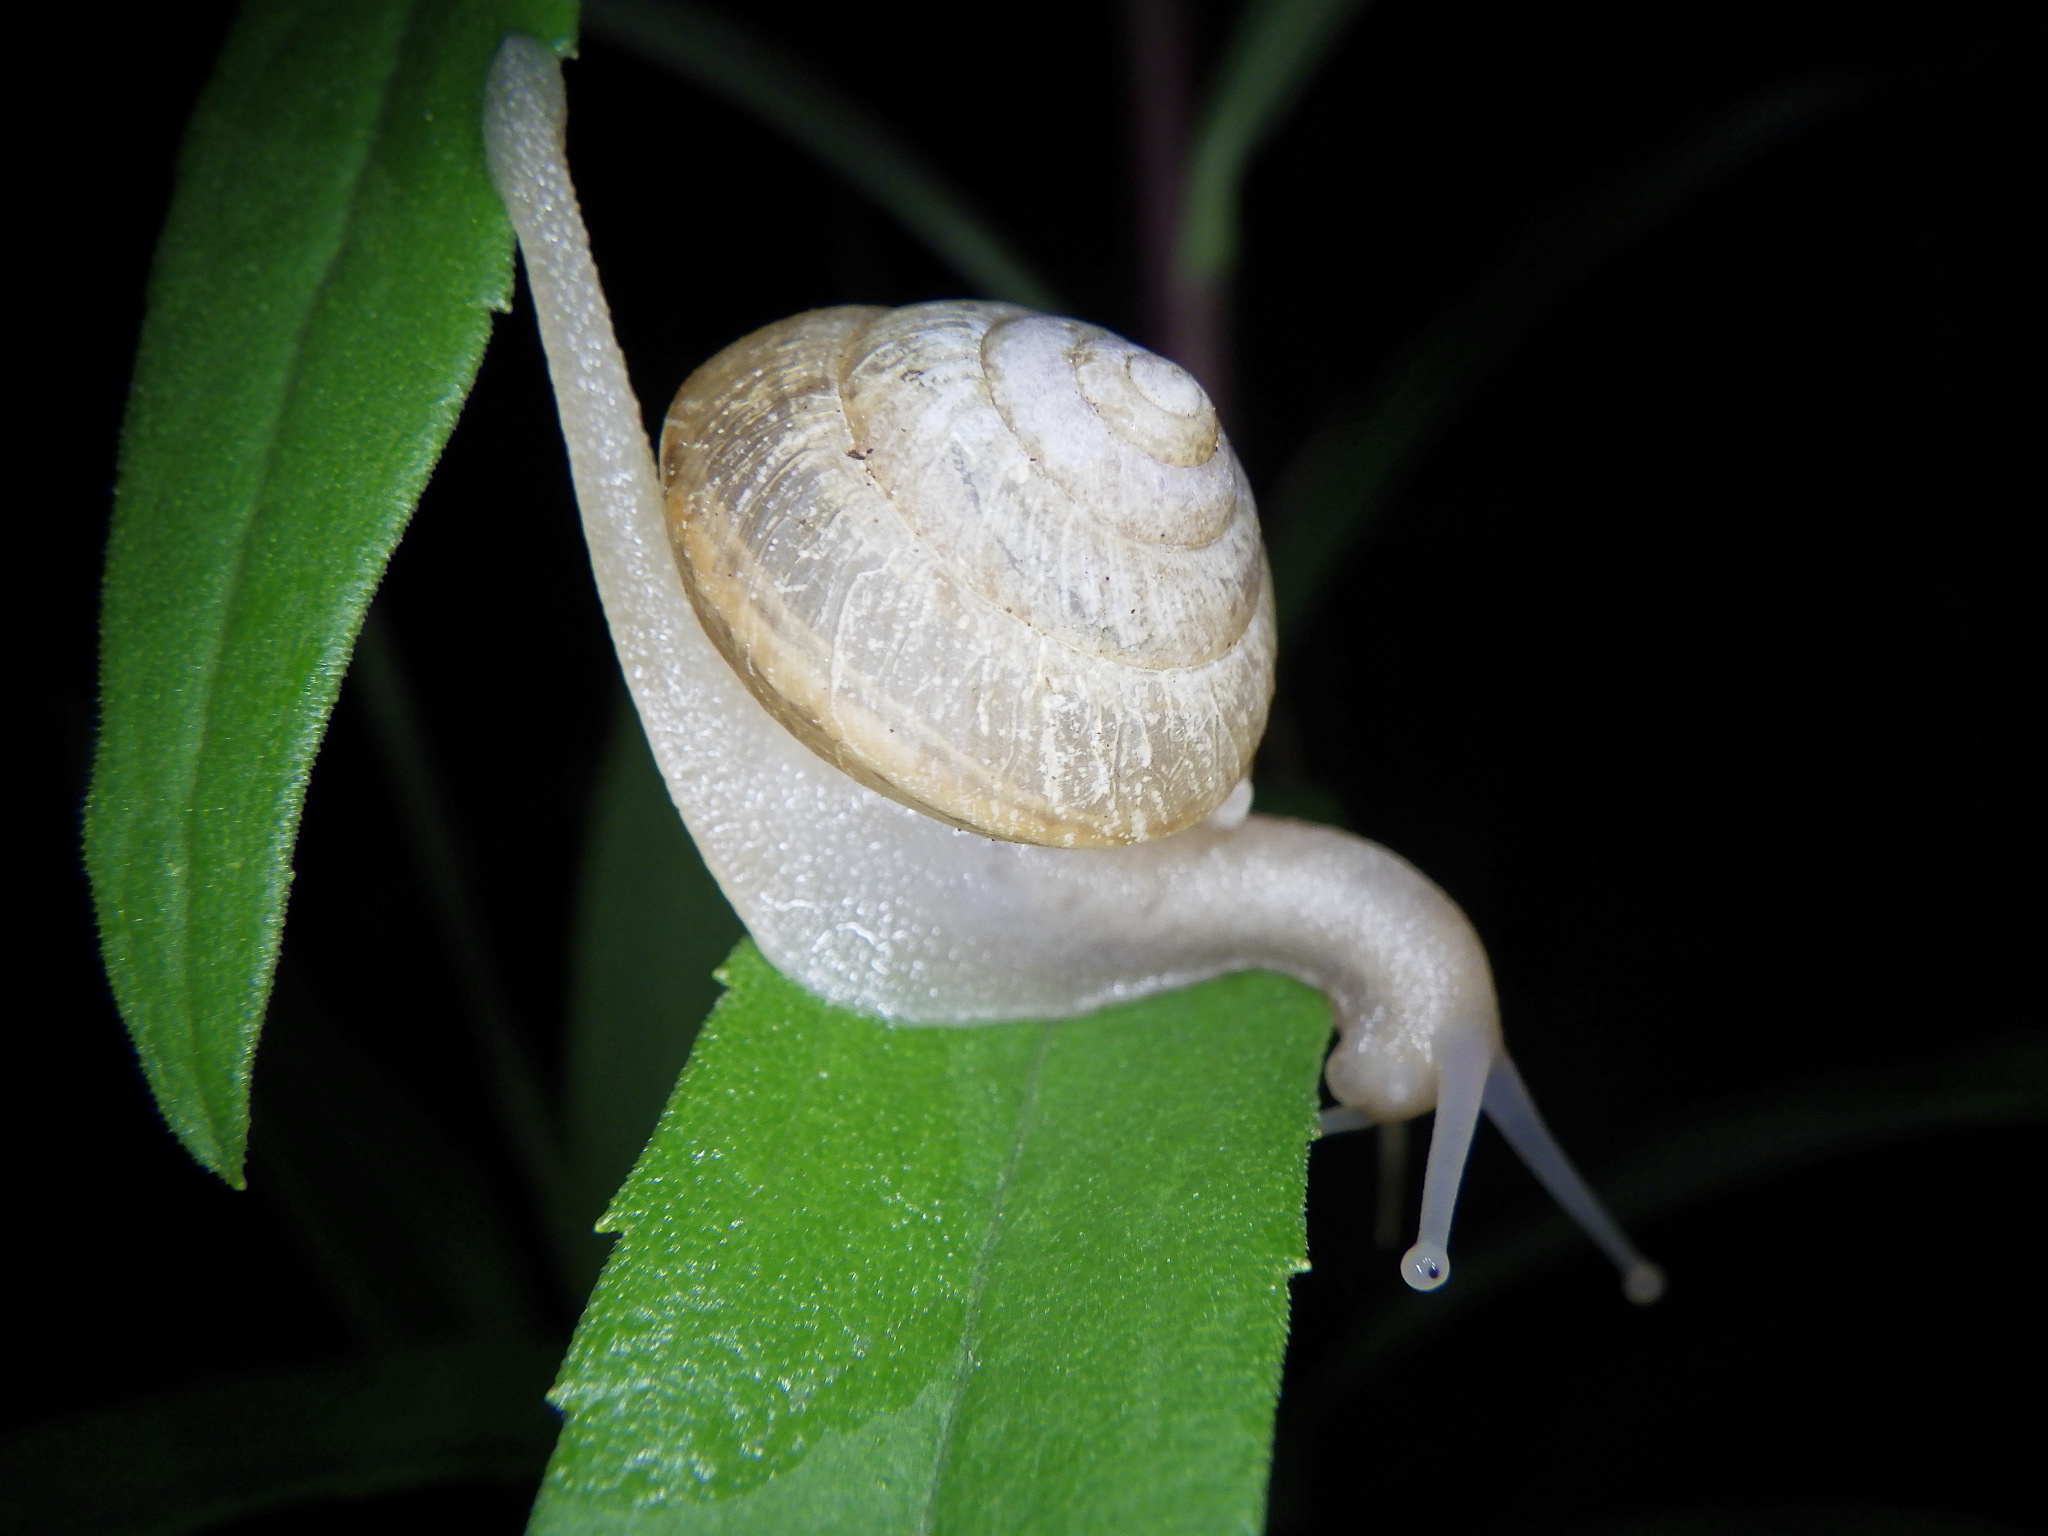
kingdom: Animalia
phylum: Mollusca
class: Gastropoda
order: Stylommatophora
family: Camaenidae
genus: Satsuma
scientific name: Satsuma japonica
